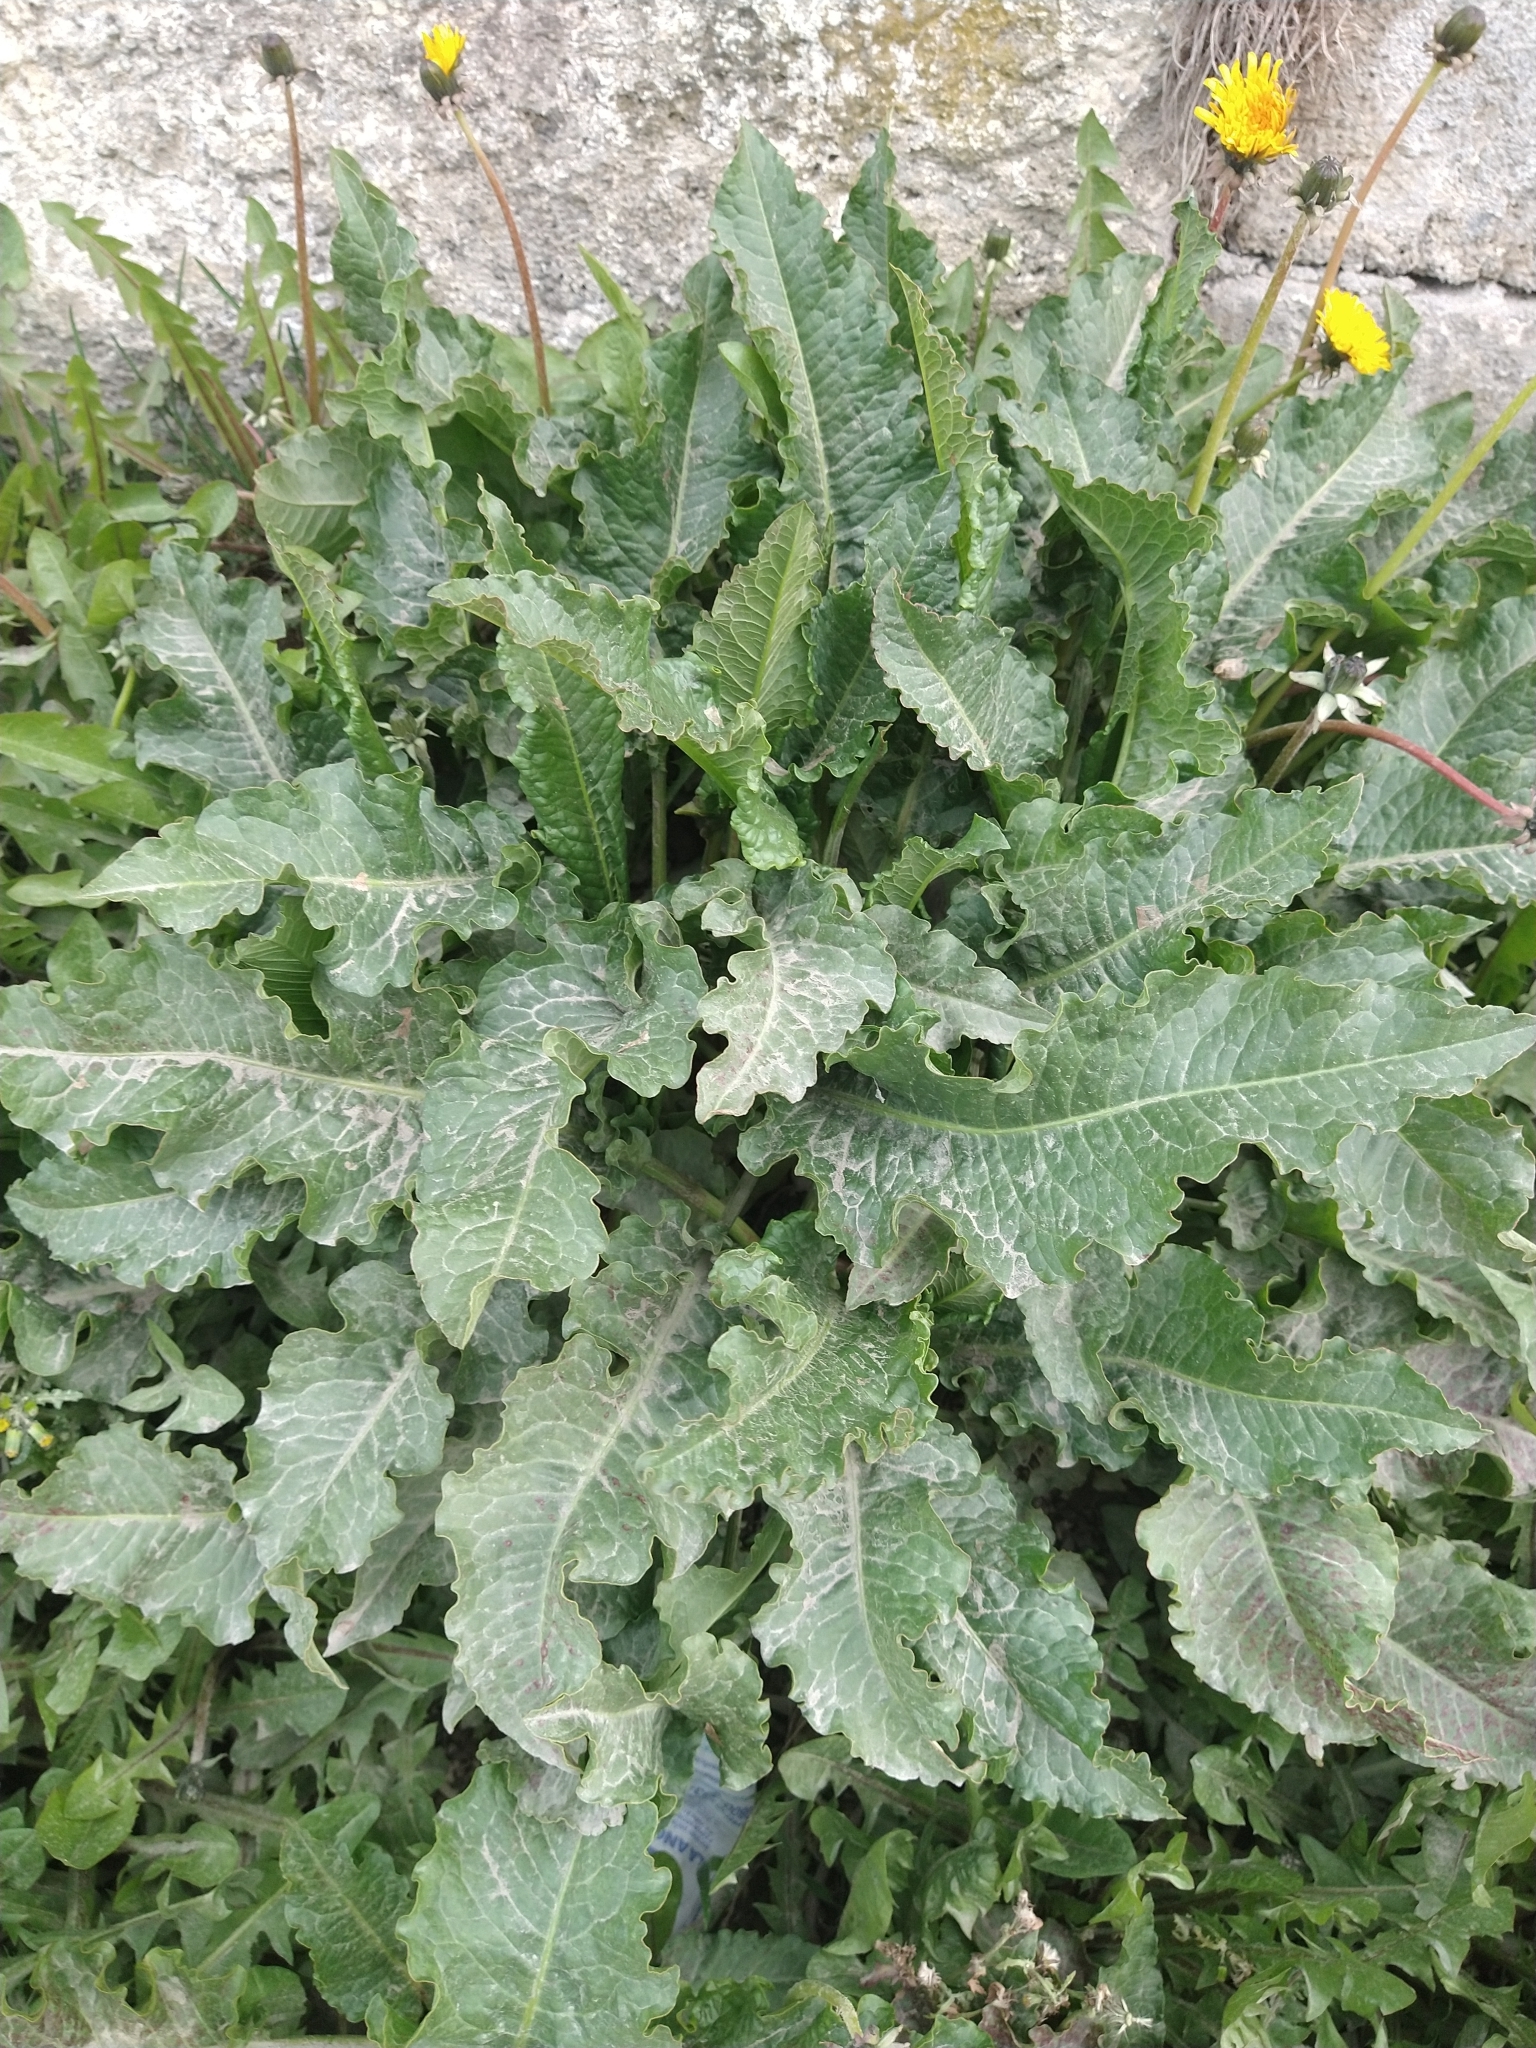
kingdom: Plantae
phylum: Tracheophyta
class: Magnoliopsida
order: Caryophyllales
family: Polygonaceae
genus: Rumex
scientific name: Rumex crispus
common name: Curled dock
